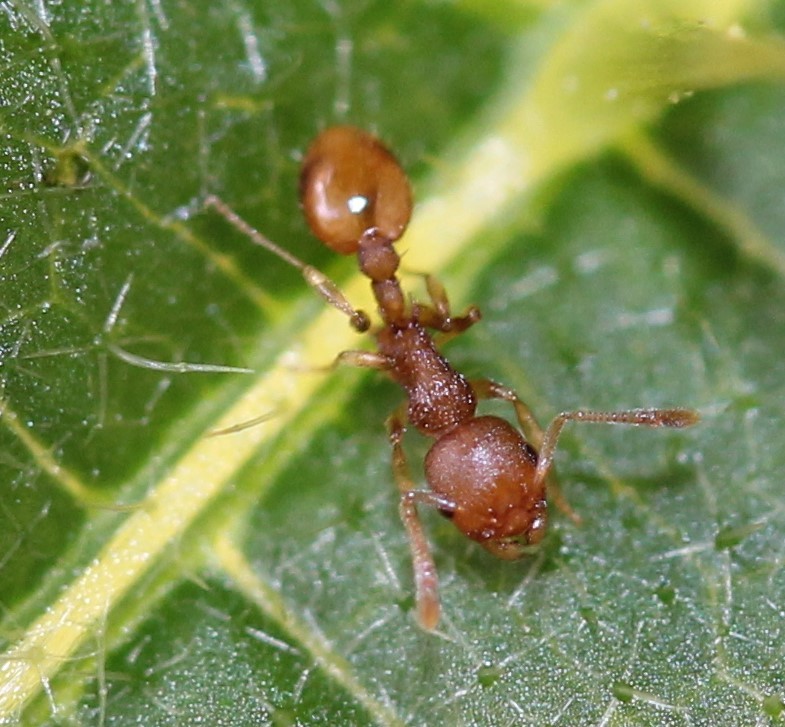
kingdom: Animalia
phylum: Arthropoda
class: Insecta
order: Hymenoptera
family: Formicidae
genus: Temnothorax
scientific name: Temnothorax curvispinosus
